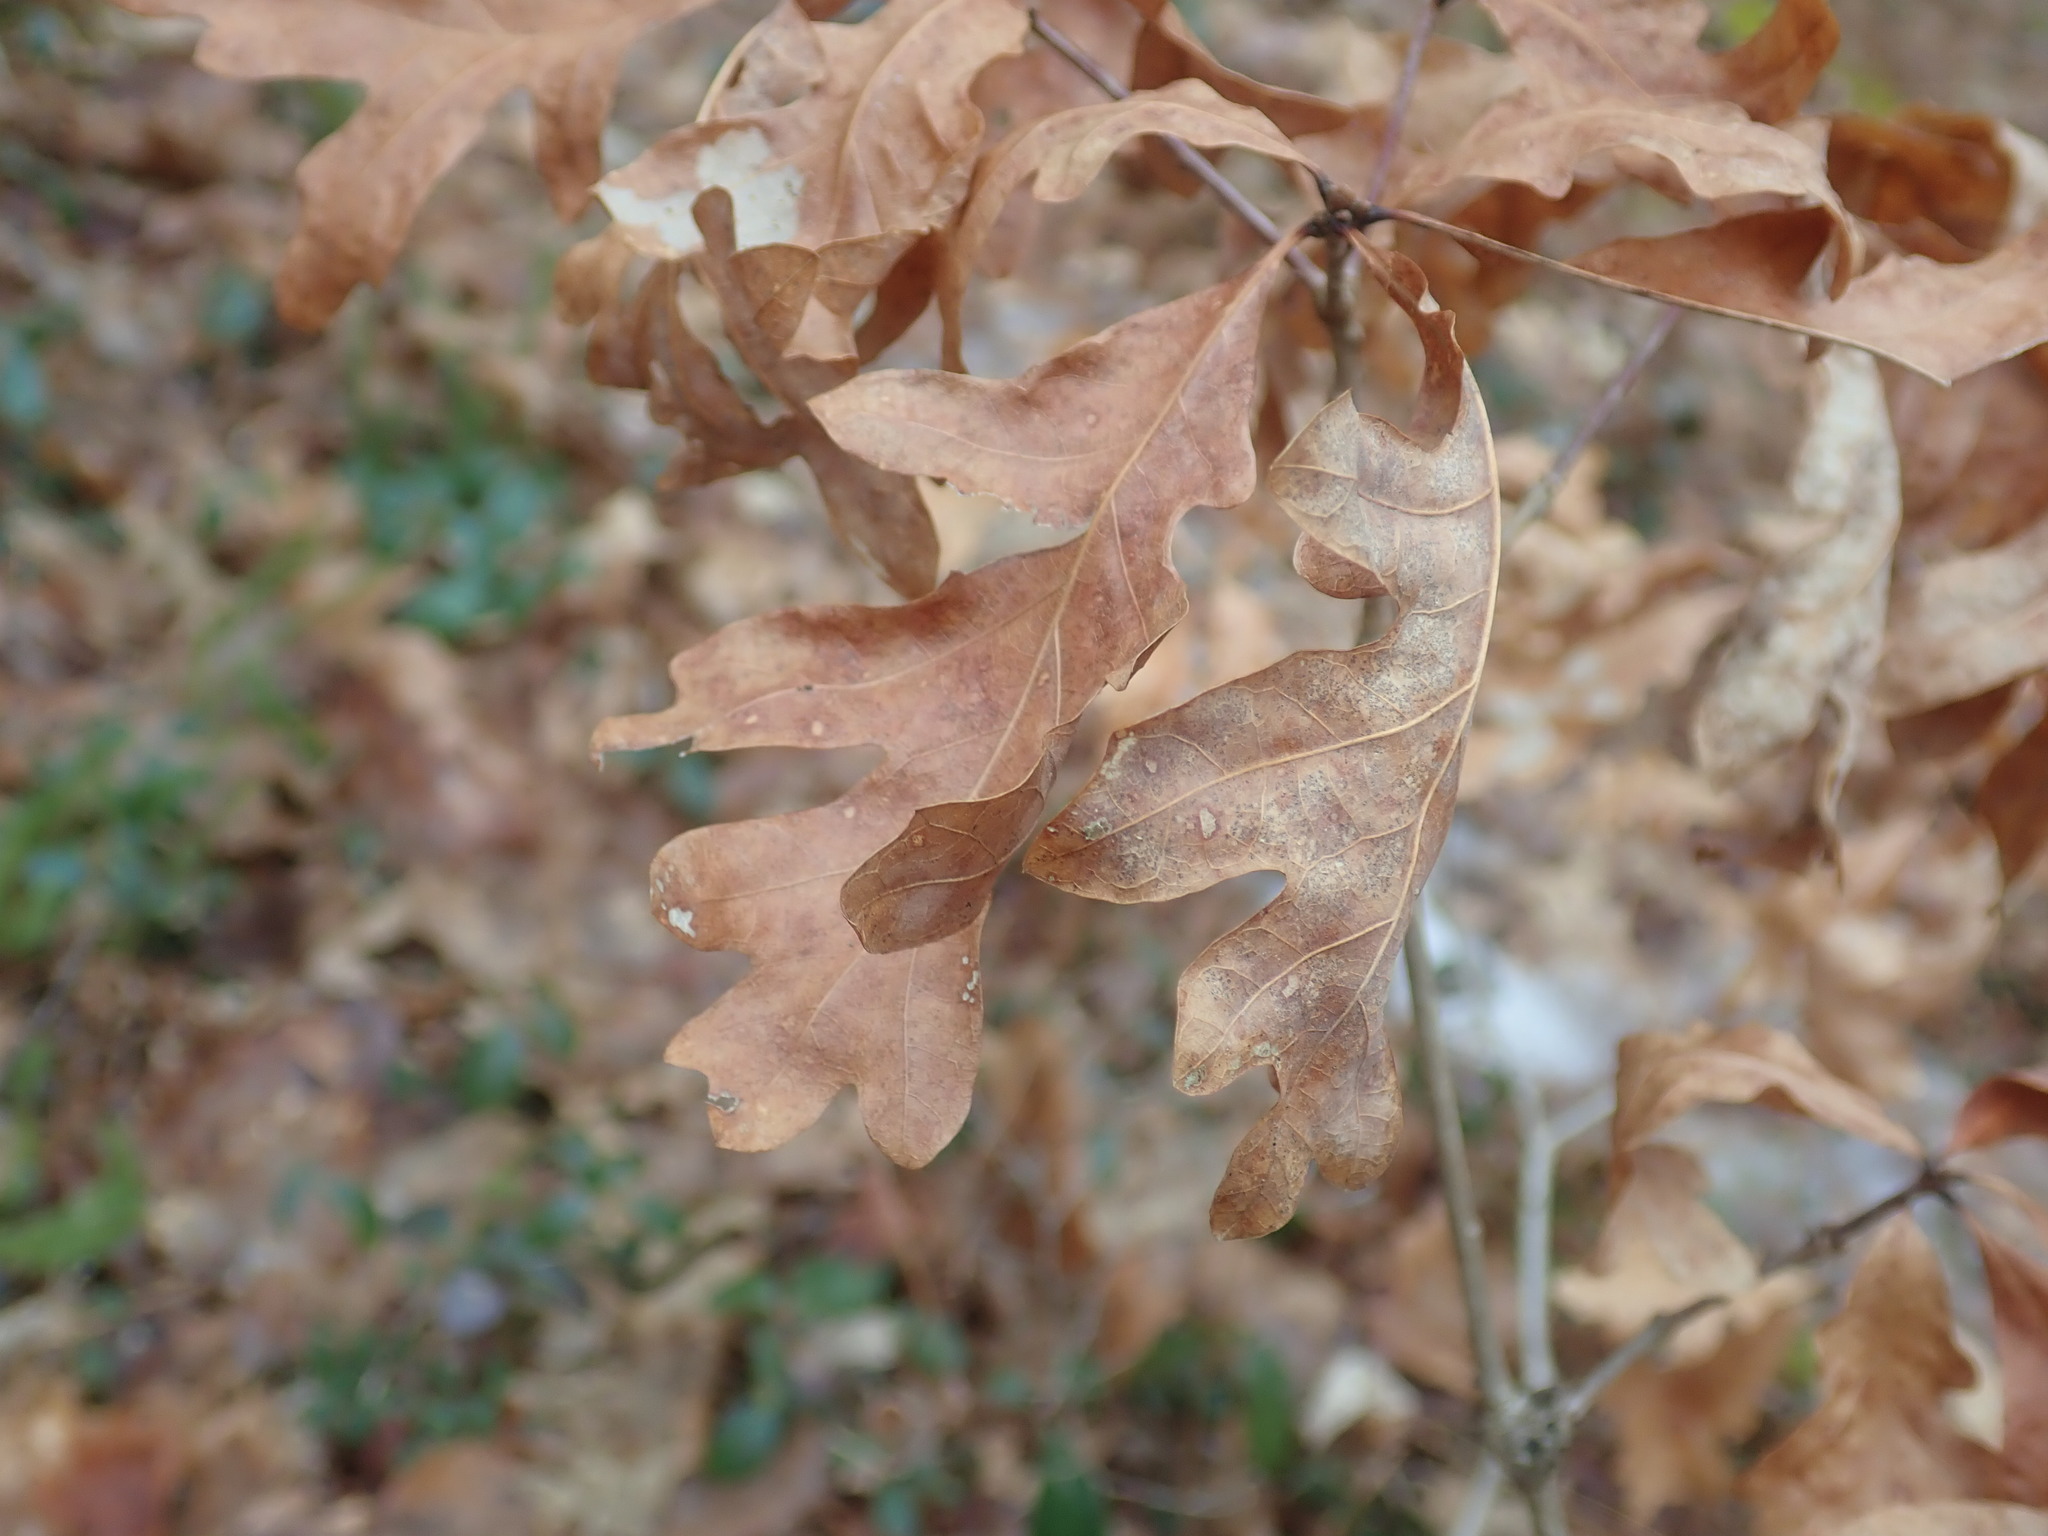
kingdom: Plantae
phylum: Tracheophyta
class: Magnoliopsida
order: Fagales
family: Fagaceae
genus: Quercus
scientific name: Quercus alba
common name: White oak
